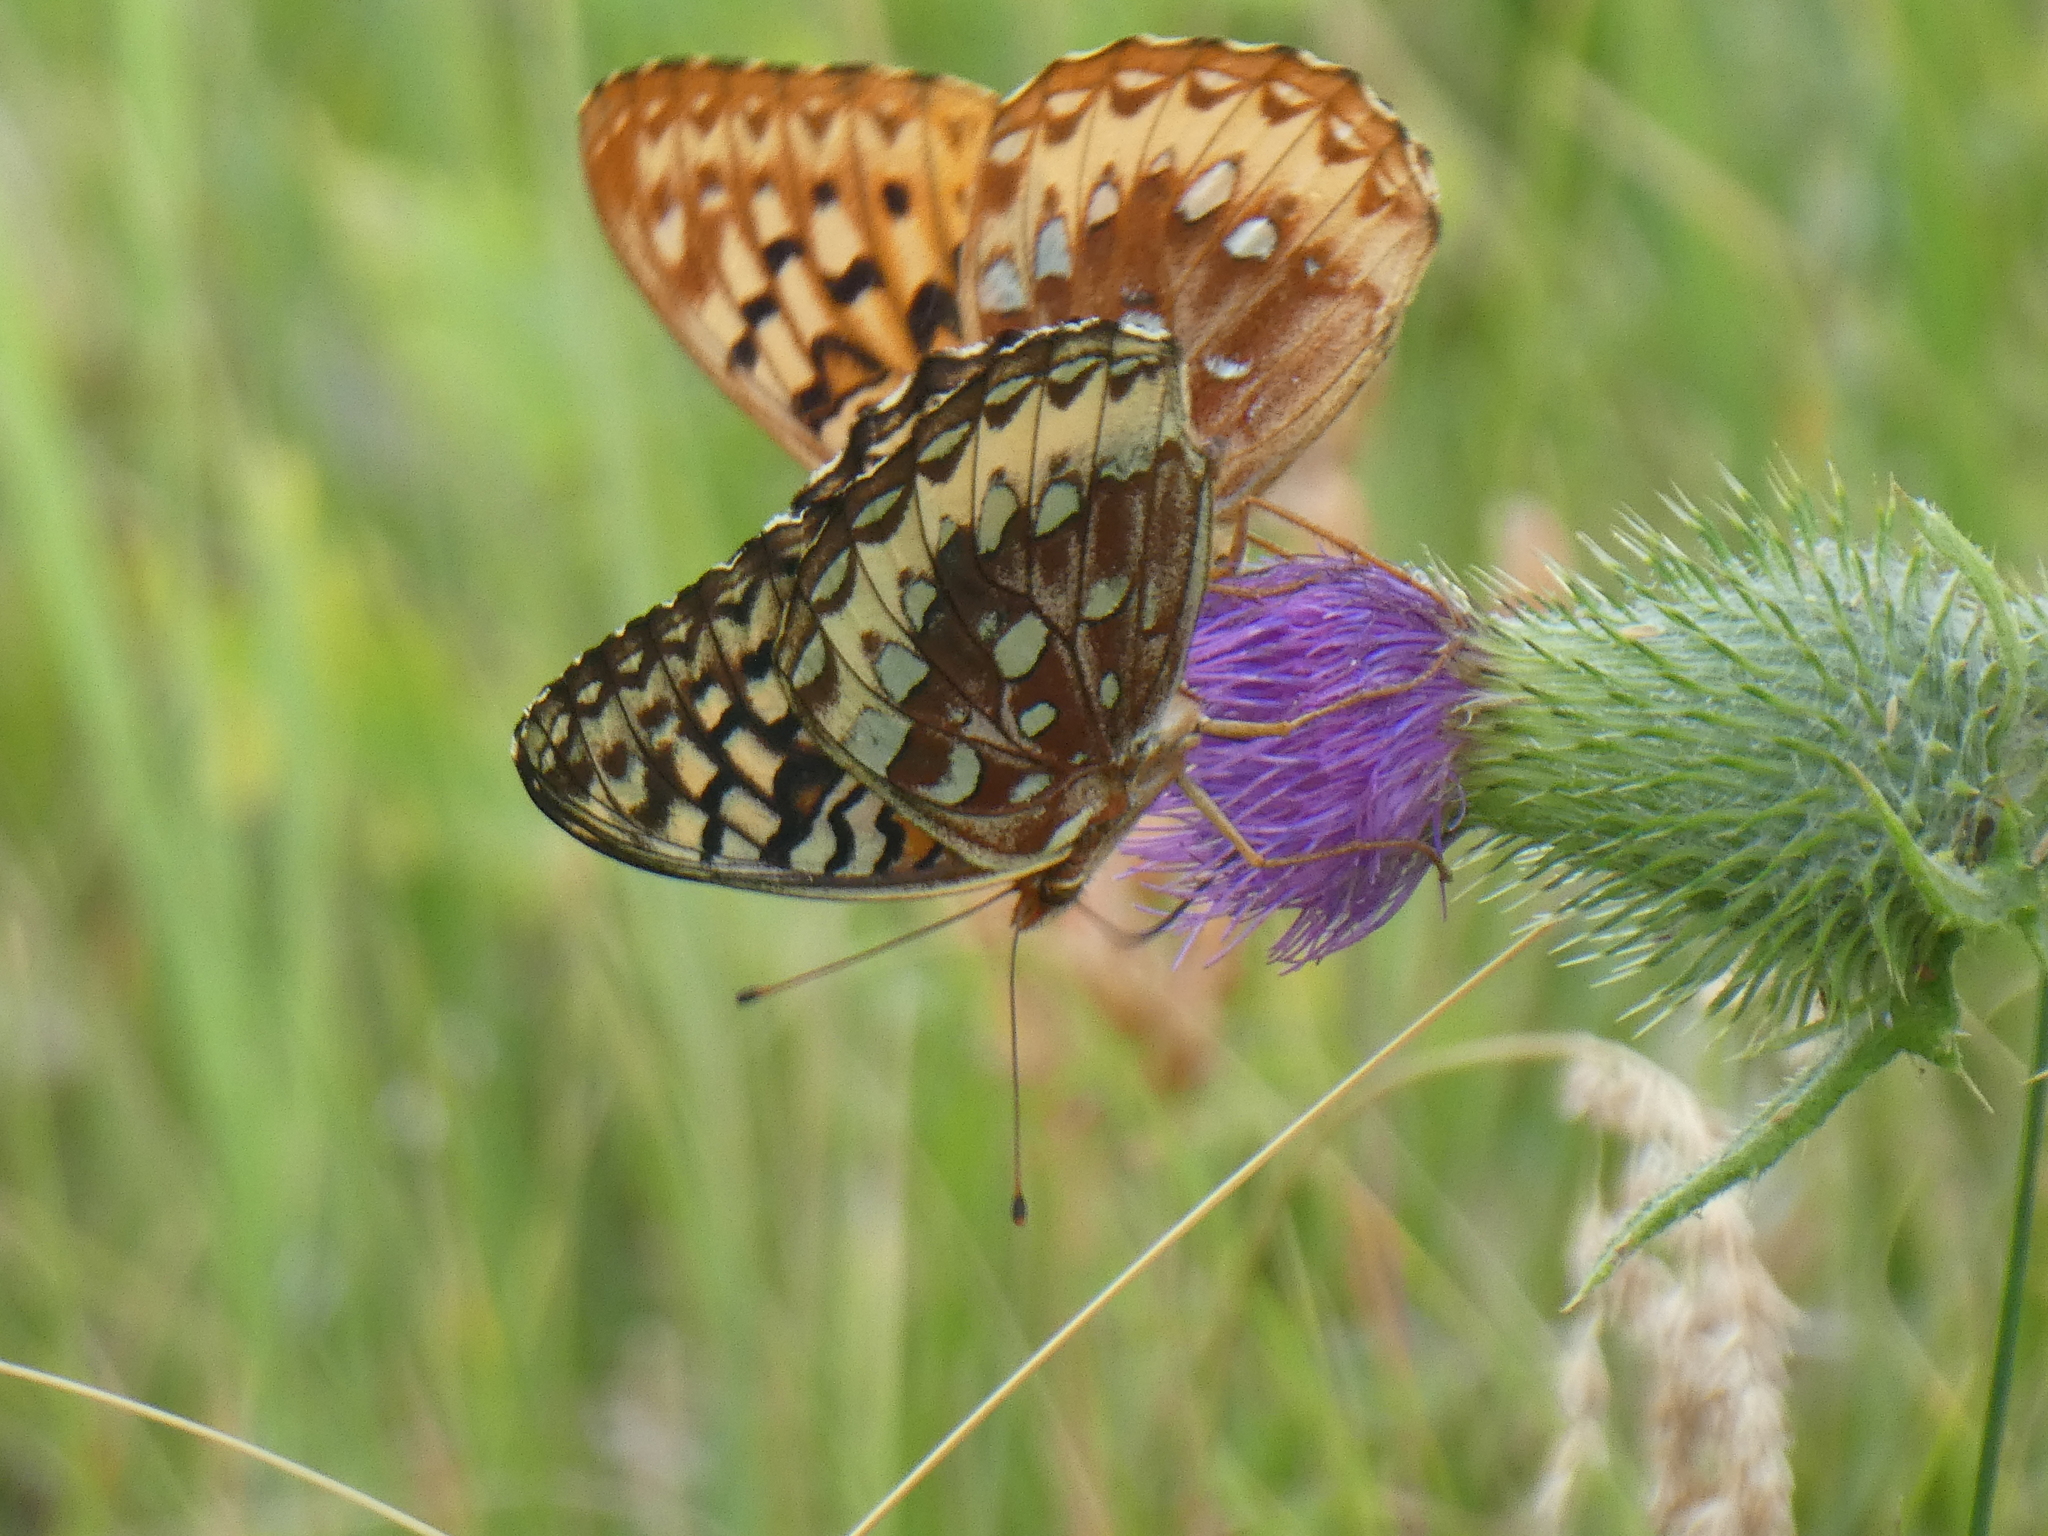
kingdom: Animalia
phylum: Arthropoda
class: Insecta
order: Lepidoptera
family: Nymphalidae
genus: Speyeria
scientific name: Speyeria cybele
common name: Great spangled fritillary
